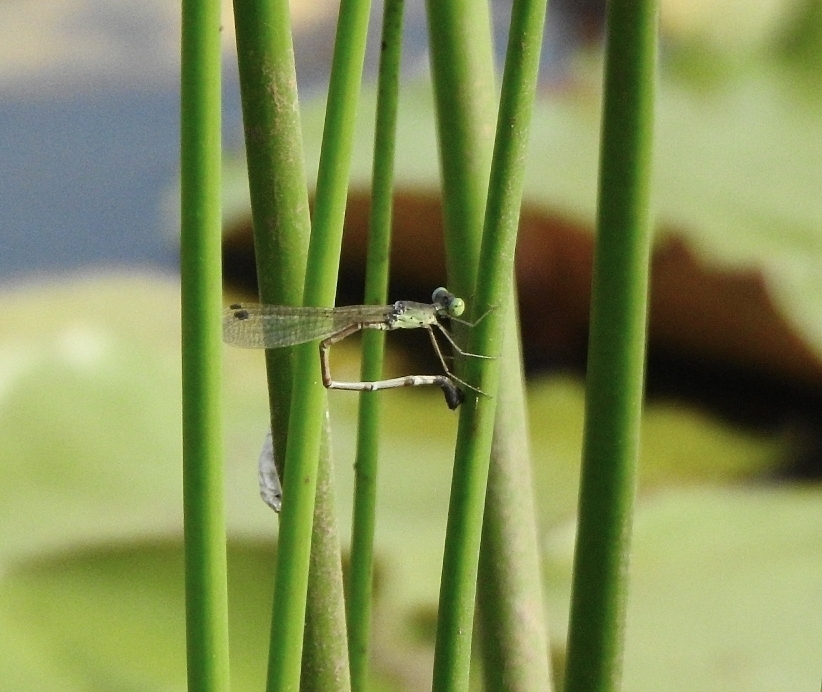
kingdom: Animalia
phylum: Arthropoda
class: Insecta
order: Odonata
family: Lestidae
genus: Platylestes
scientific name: Platylestes kirani
